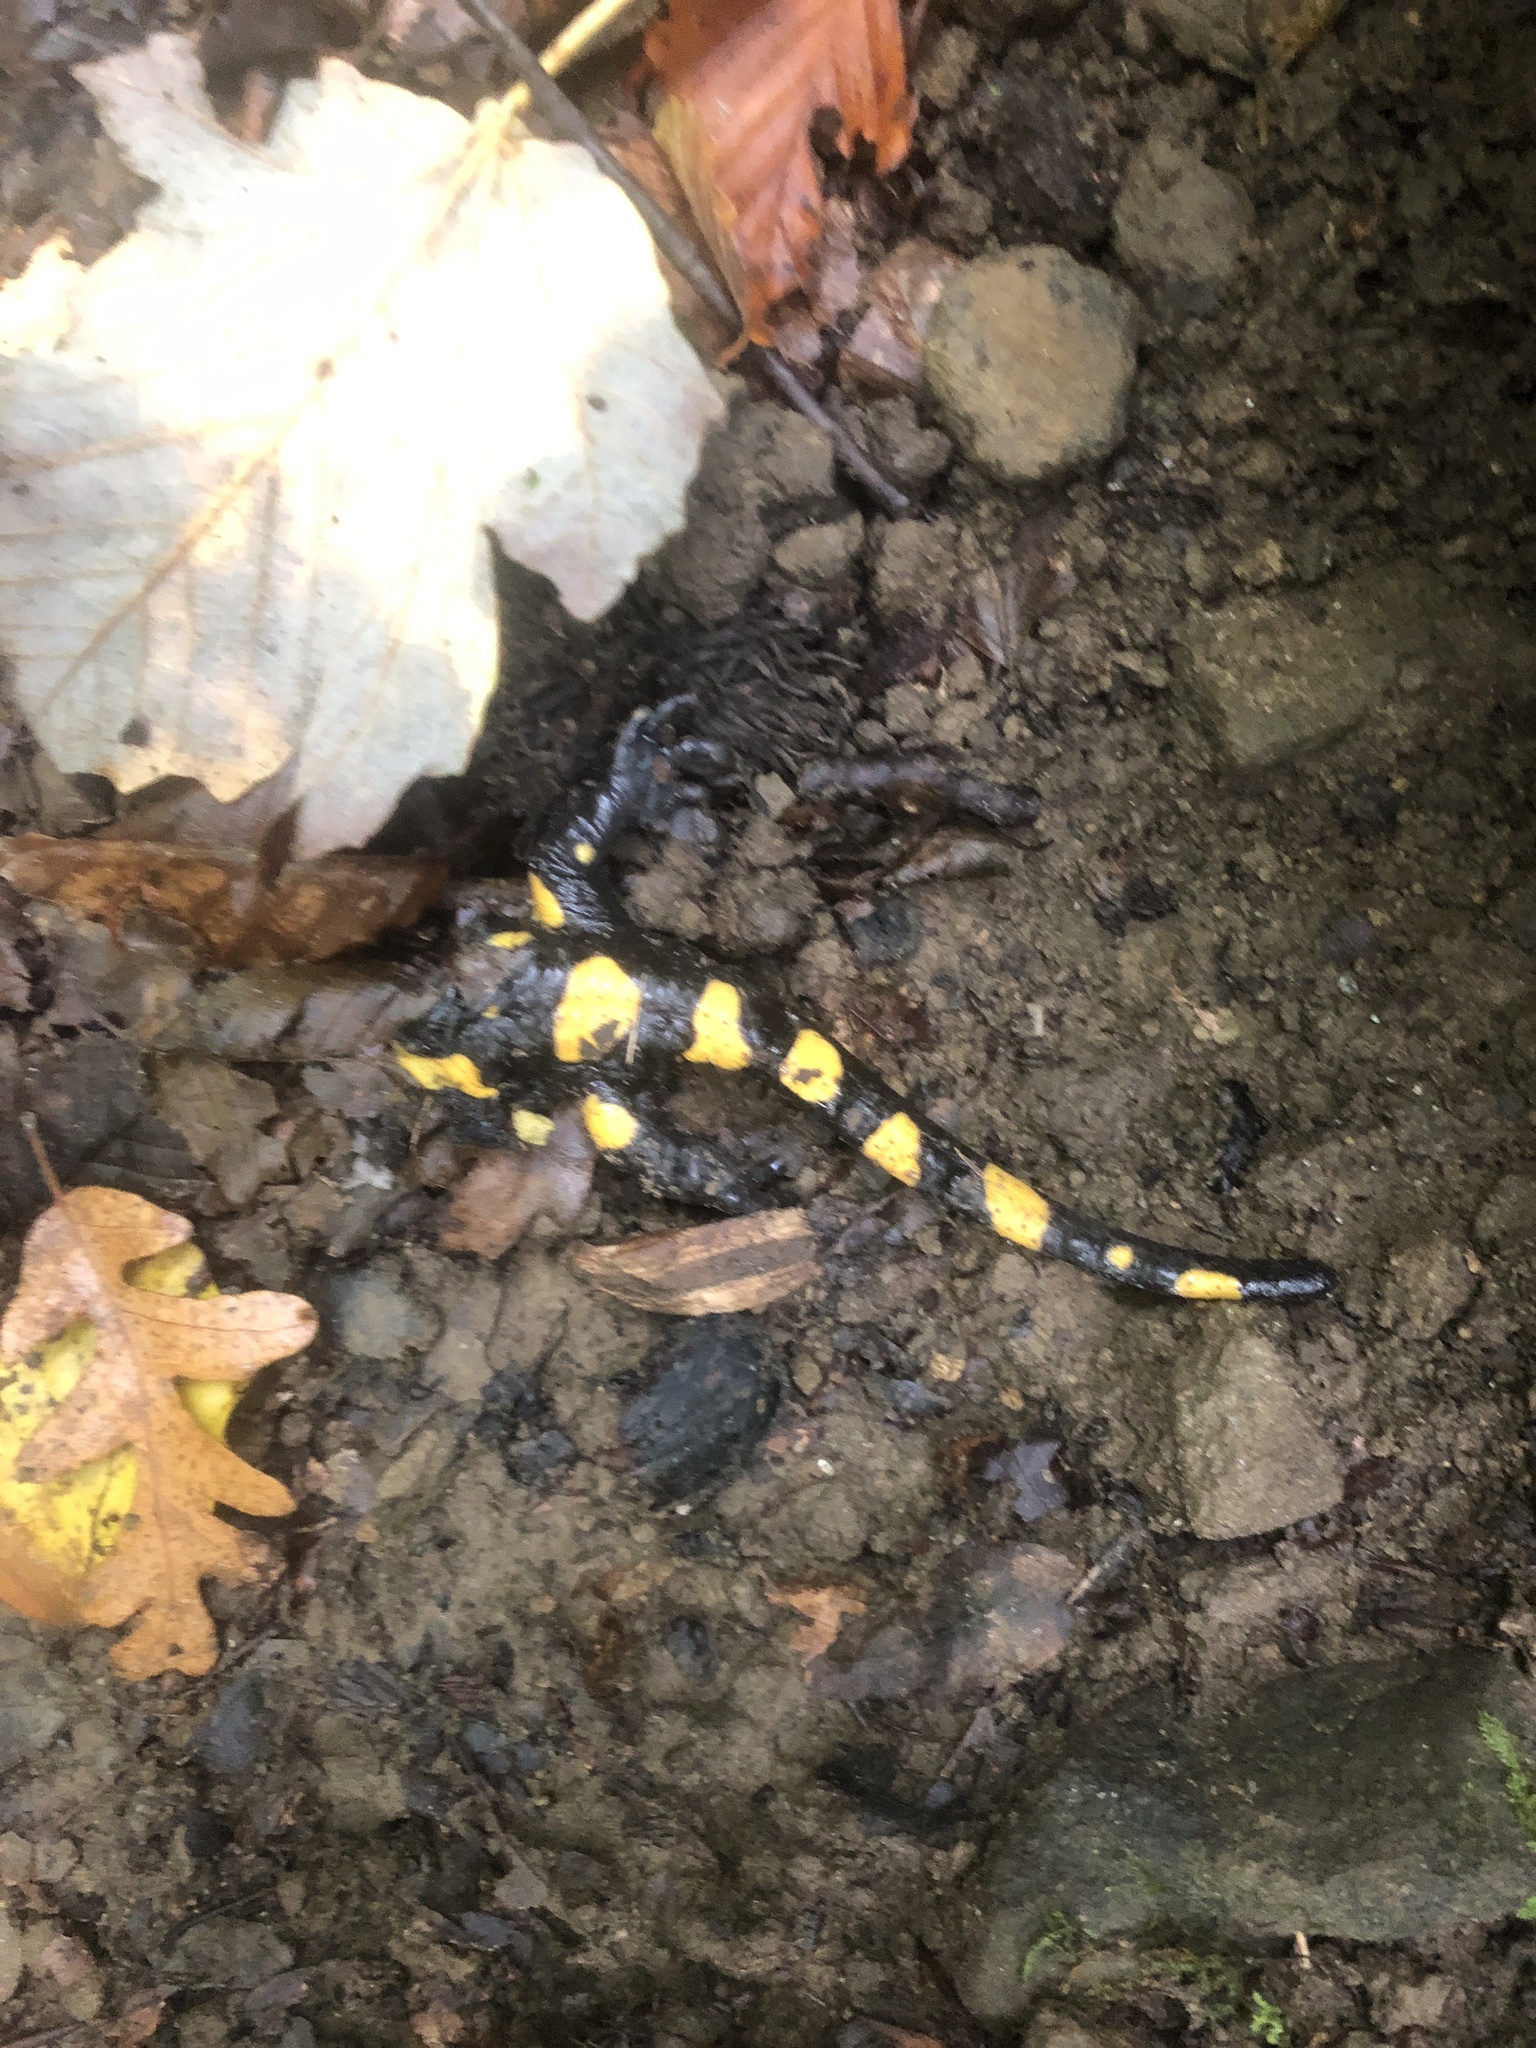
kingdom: Animalia
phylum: Chordata
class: Amphibia
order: Caudata
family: Salamandridae
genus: Salamandra
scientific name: Salamandra salamandra
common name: Fire salamander
